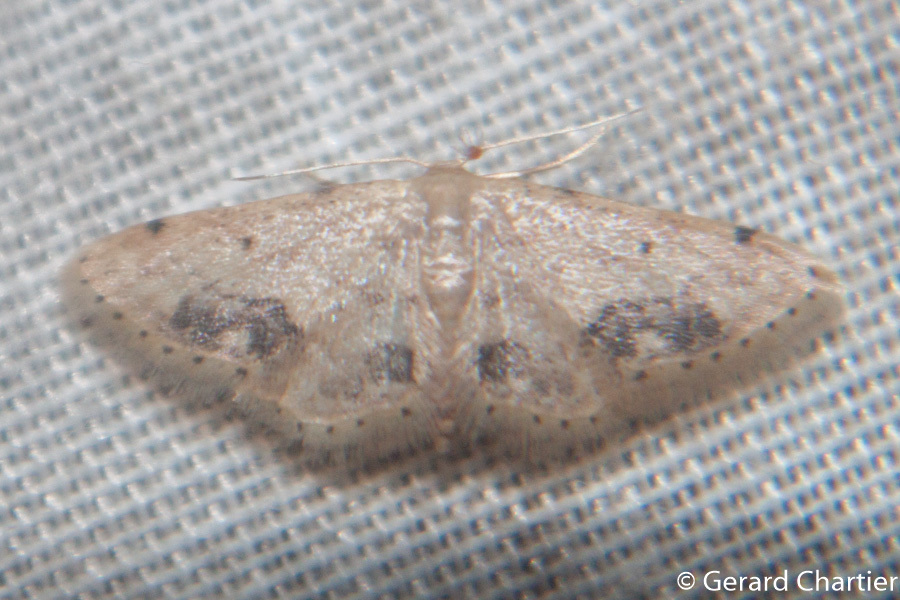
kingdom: Animalia
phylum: Arthropoda
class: Insecta
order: Lepidoptera
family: Geometridae
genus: Idaea
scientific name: Idaea chotaria
